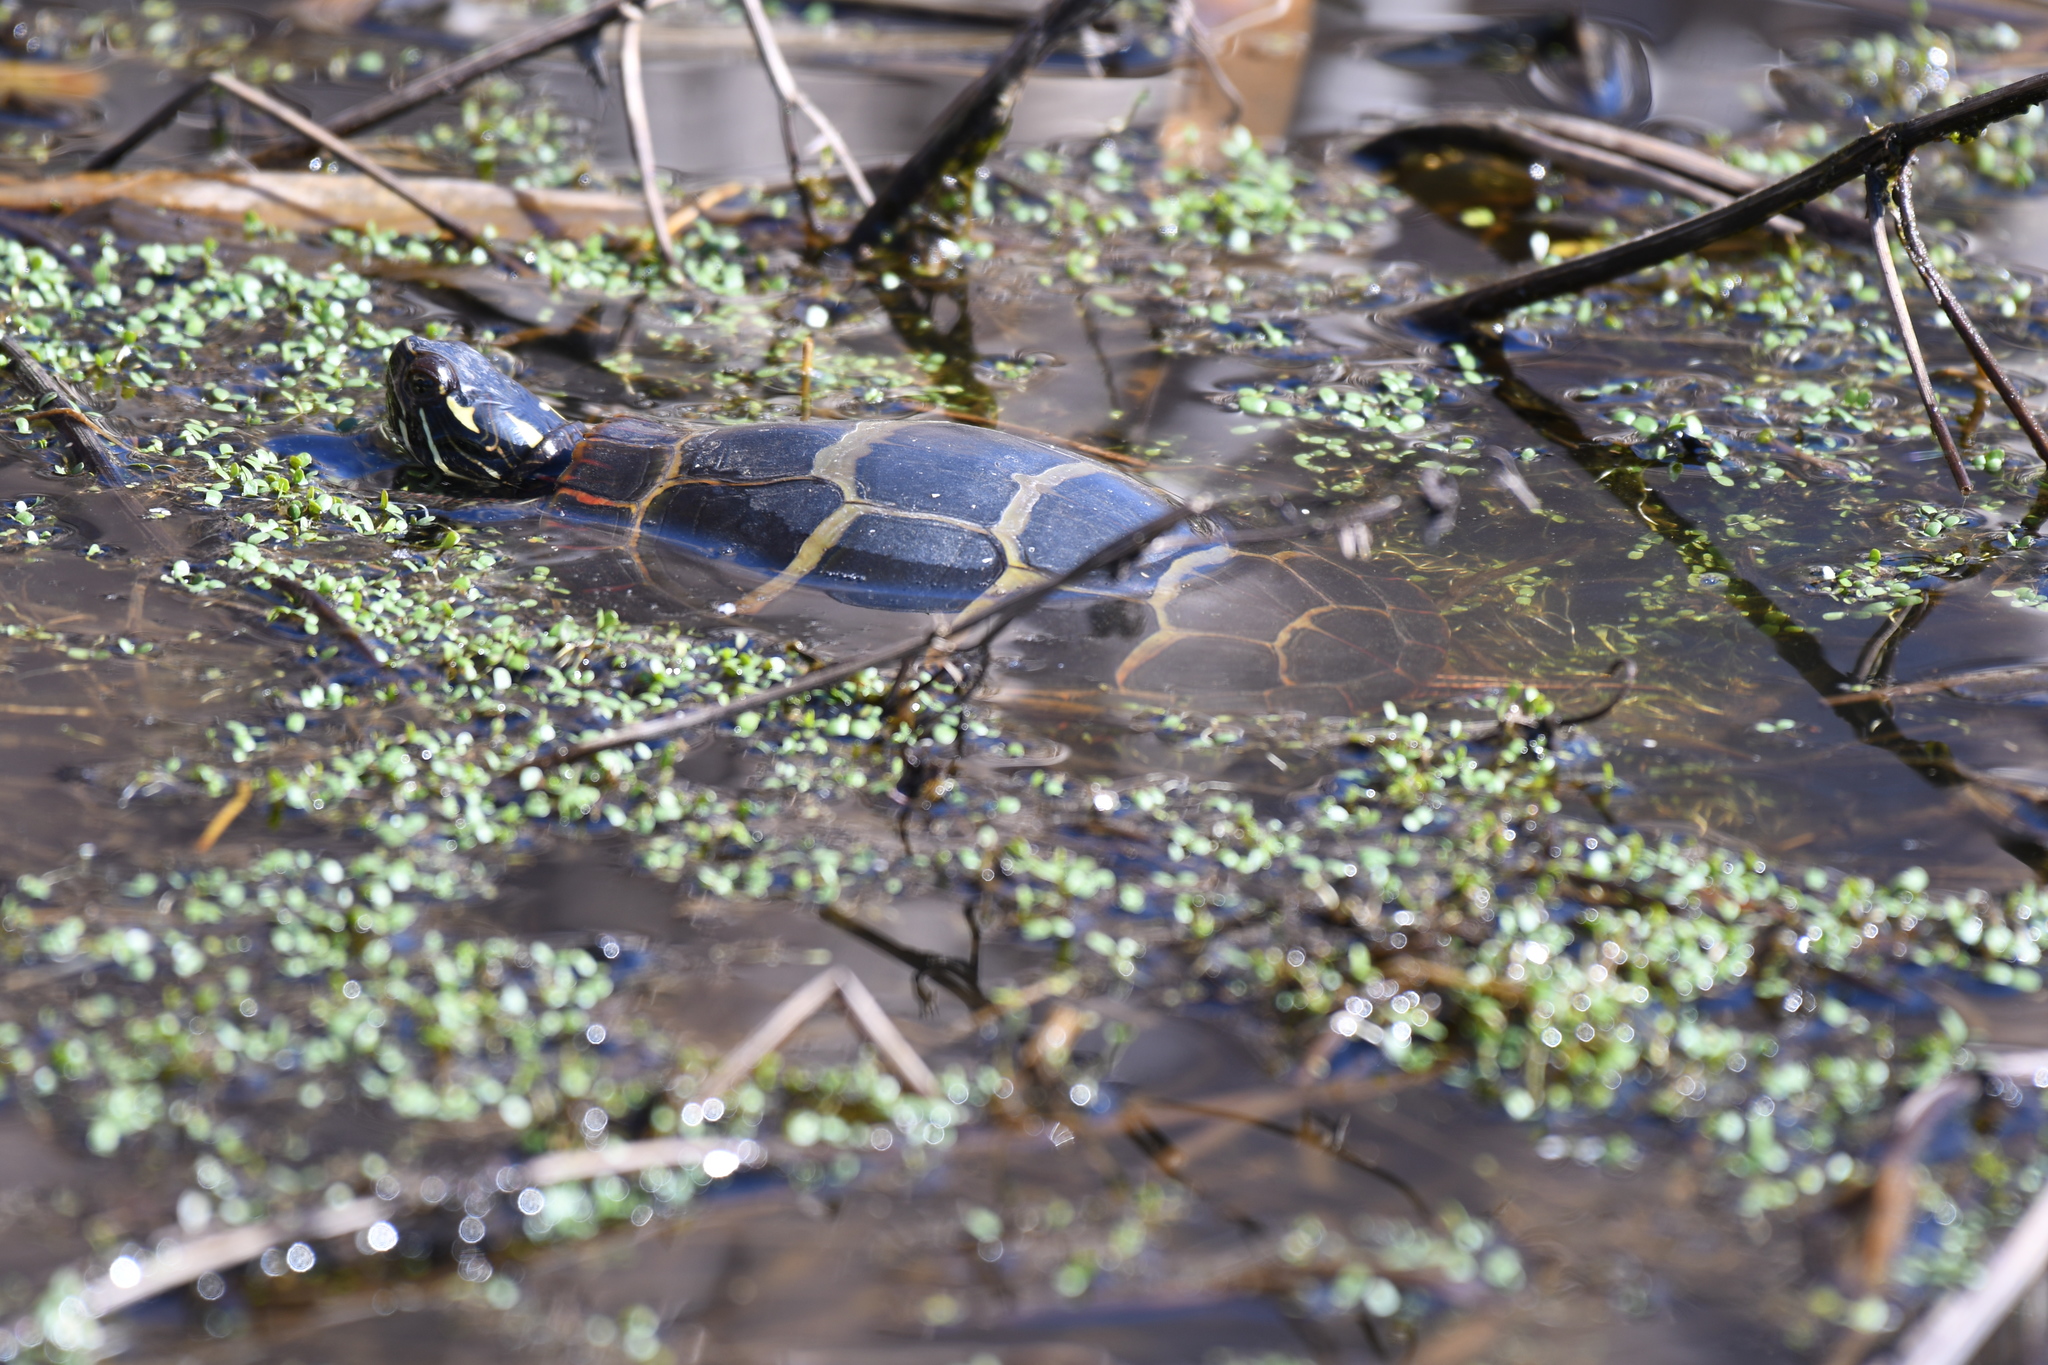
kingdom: Animalia
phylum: Chordata
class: Testudines
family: Emydidae
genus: Chrysemys
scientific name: Chrysemys picta
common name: Painted turtle
